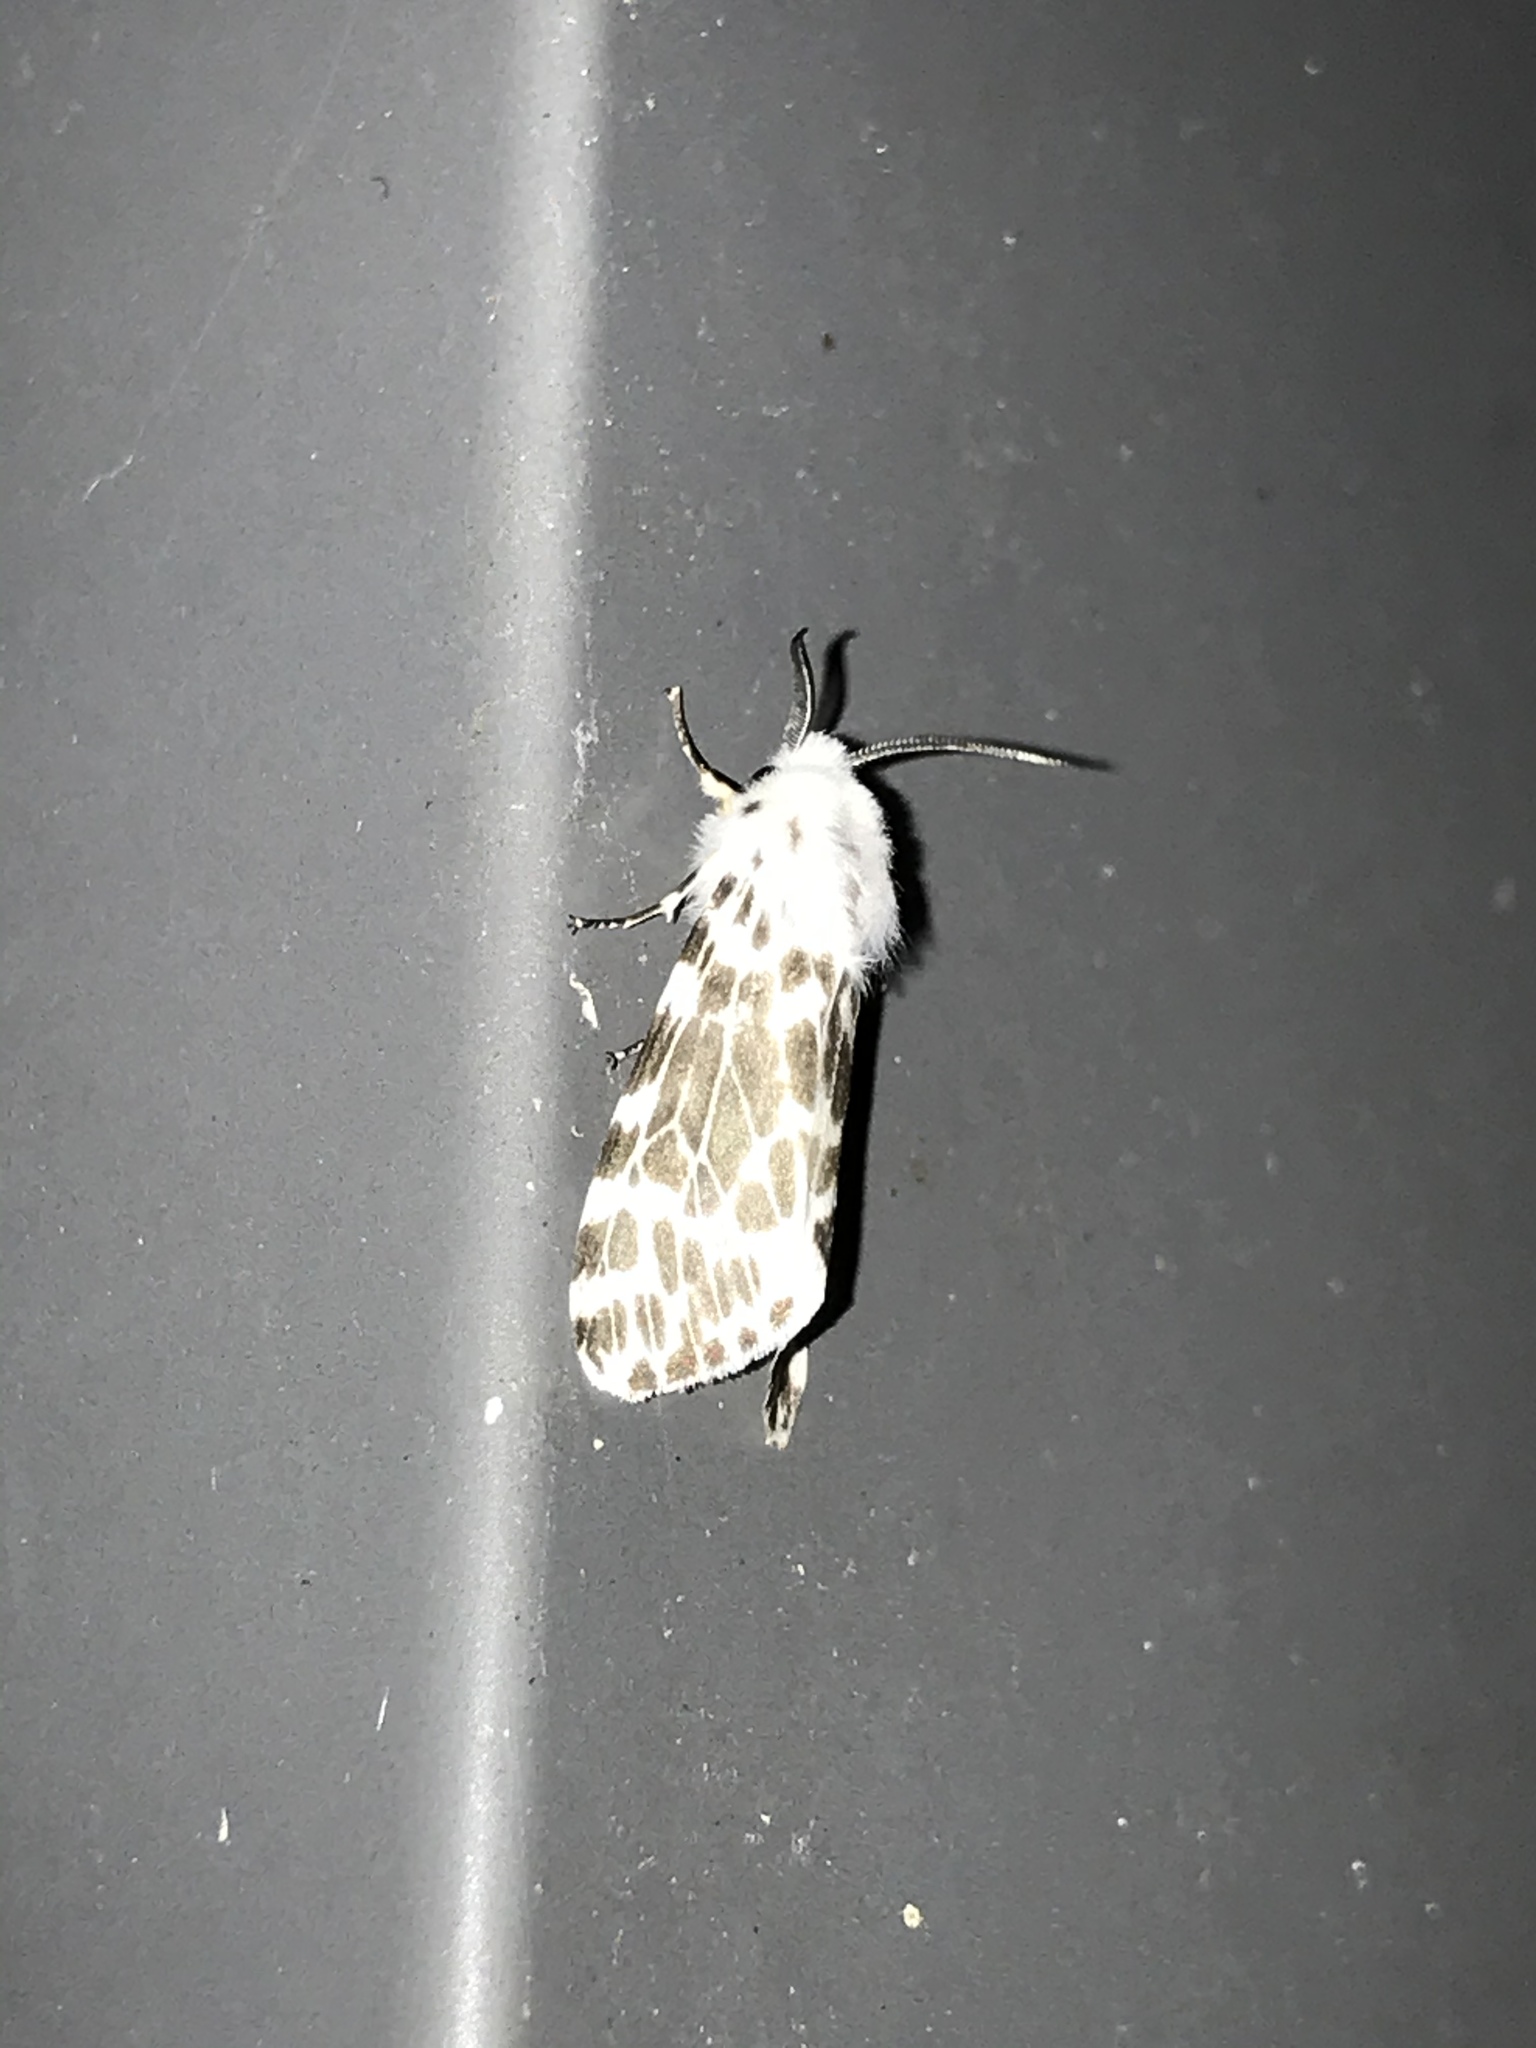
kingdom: Animalia
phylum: Arthropoda
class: Insecta
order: Lepidoptera
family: Erebidae
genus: Hyphantria
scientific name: Hyphantria cunea
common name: American white moth
